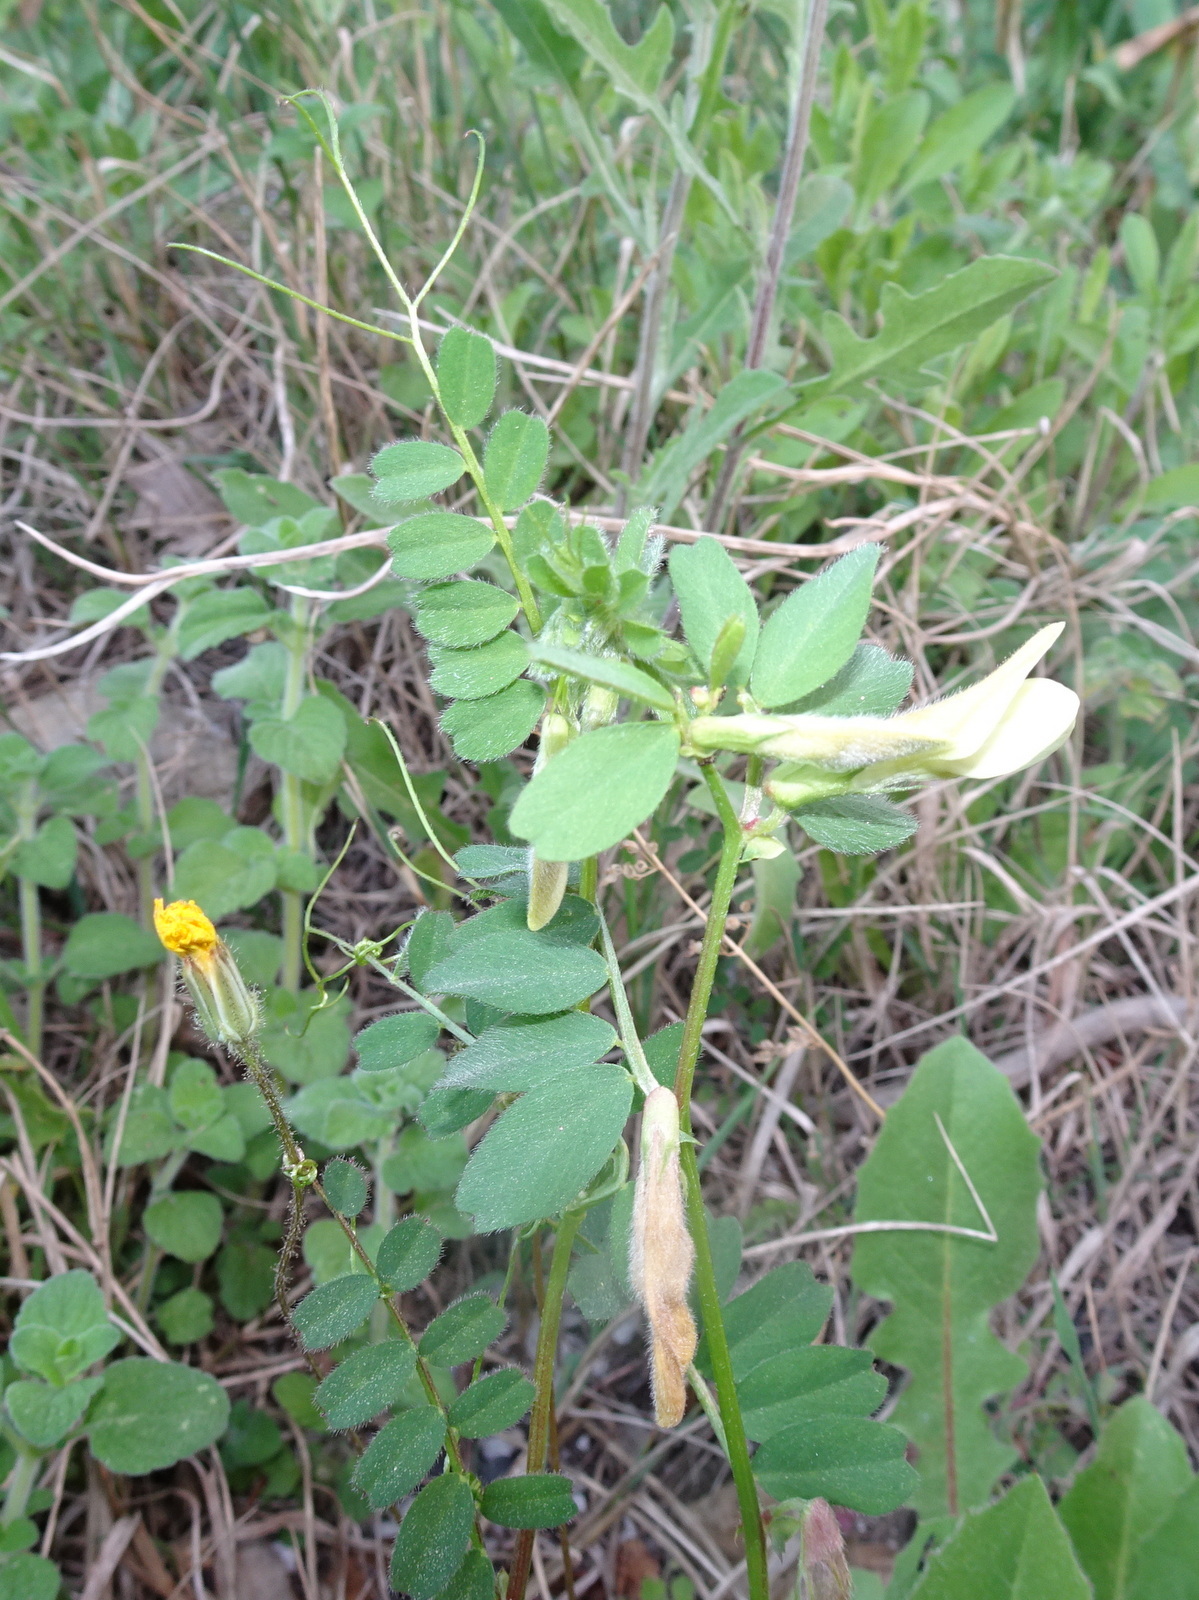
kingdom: Plantae
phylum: Tracheophyta
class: Magnoliopsida
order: Fabales
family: Fabaceae
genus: Vicia
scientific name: Vicia hybrida
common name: Hairy yellow vetch
